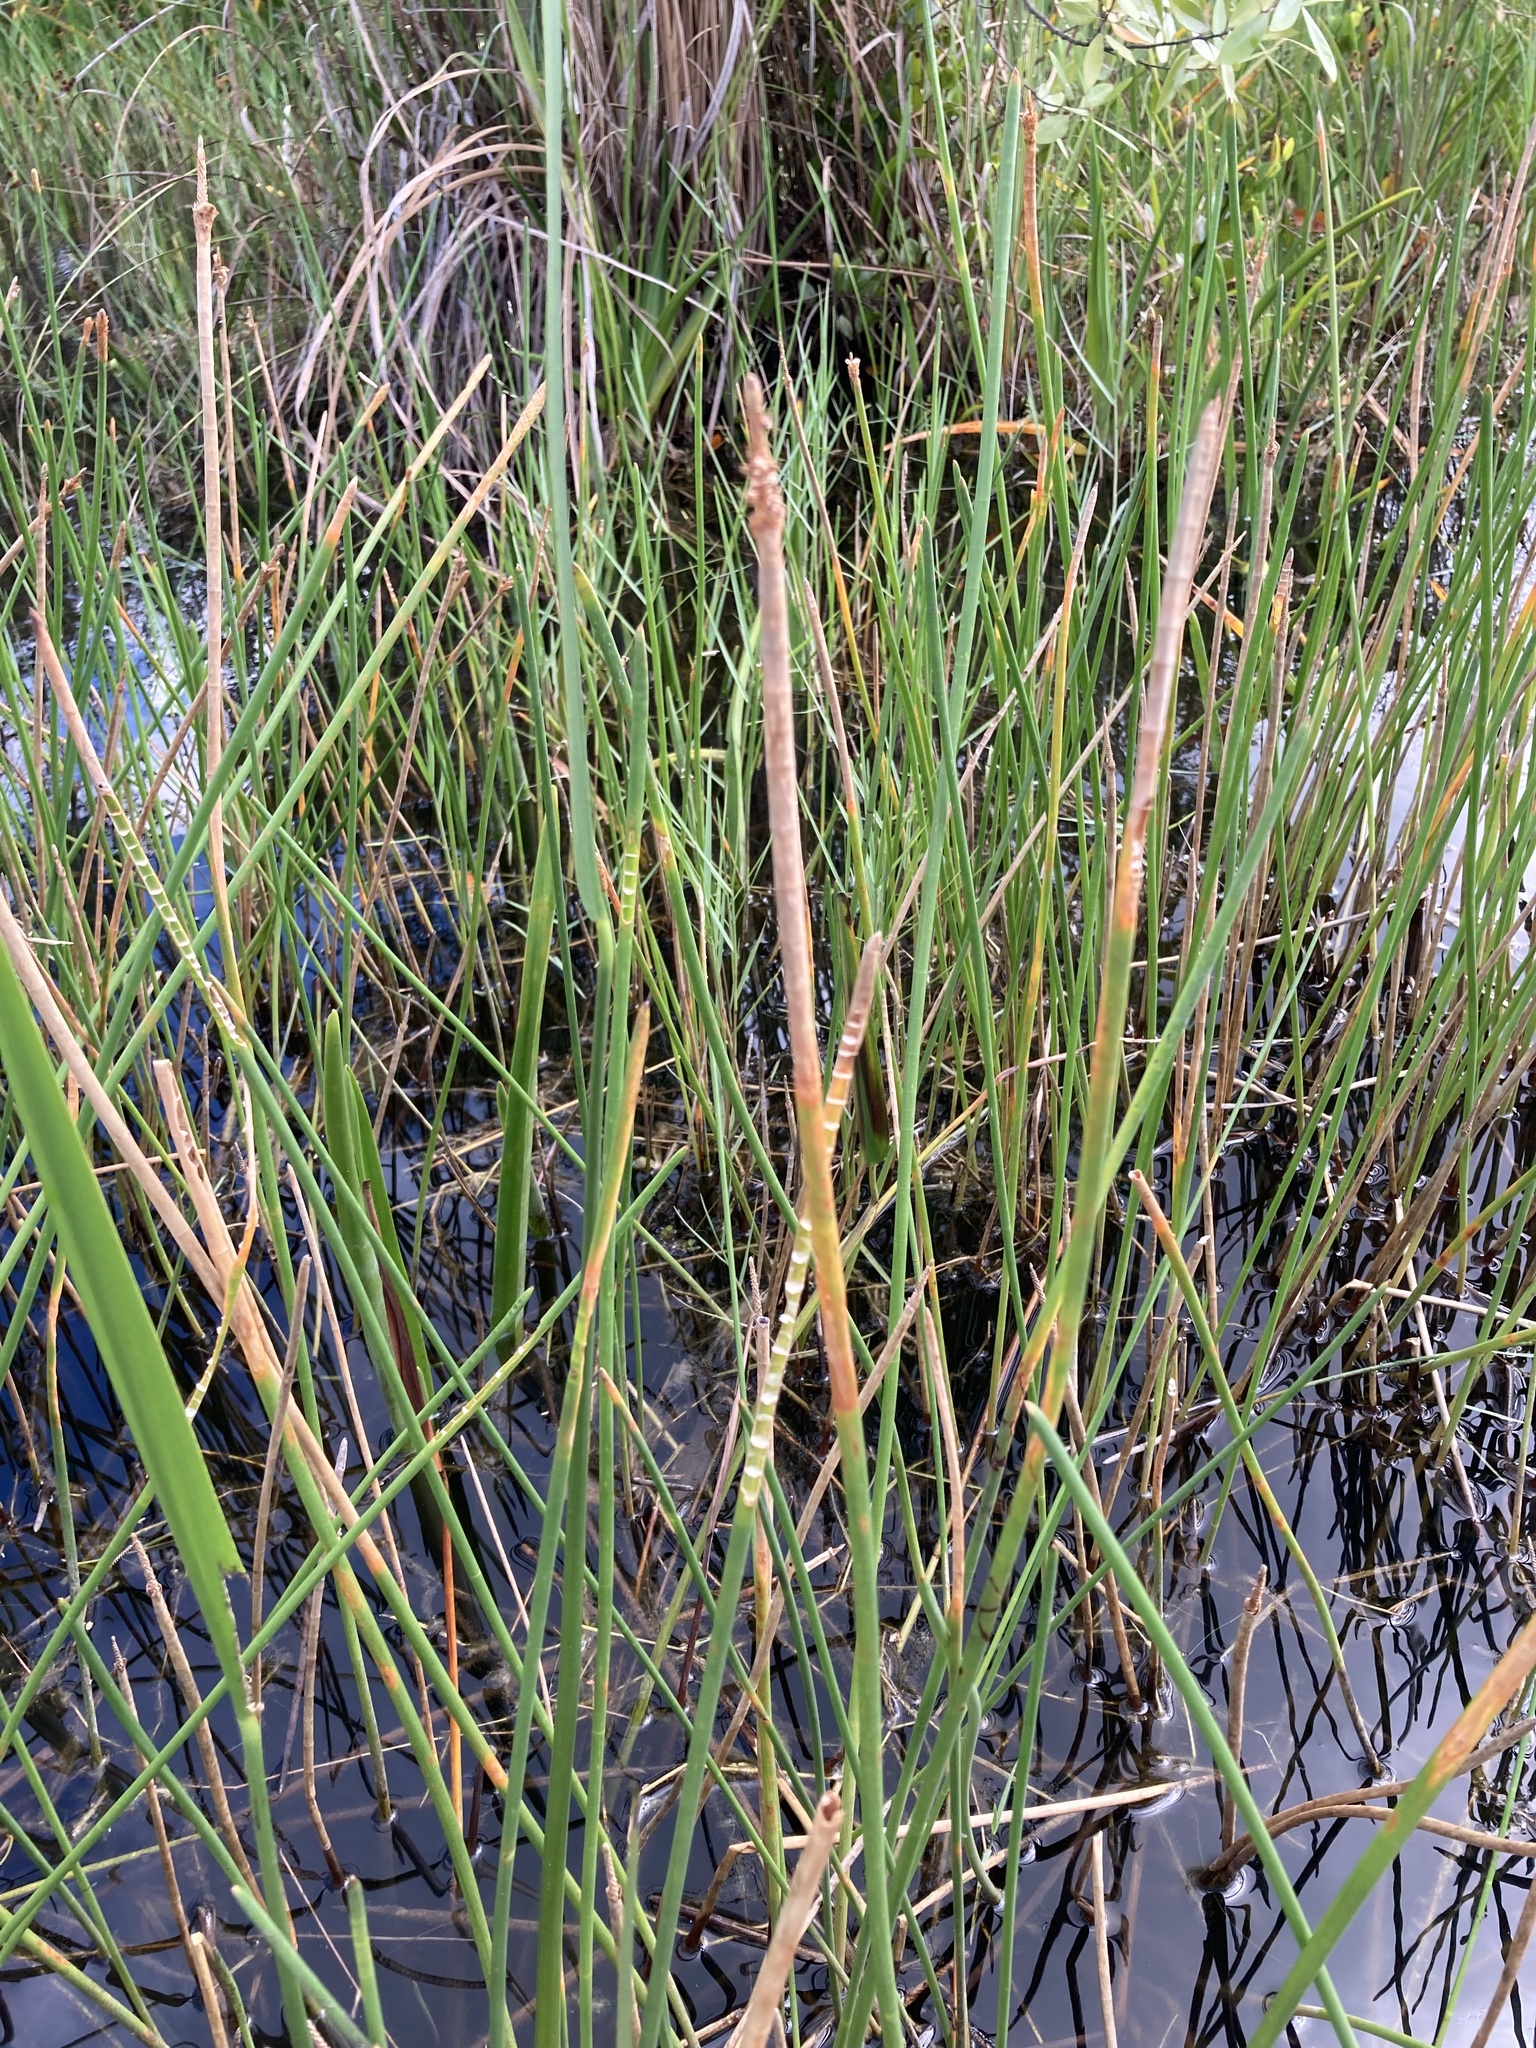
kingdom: Plantae
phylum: Tracheophyta
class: Liliopsida
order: Poales
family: Cyperaceae
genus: Eleocharis
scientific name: Eleocharis interstincta
